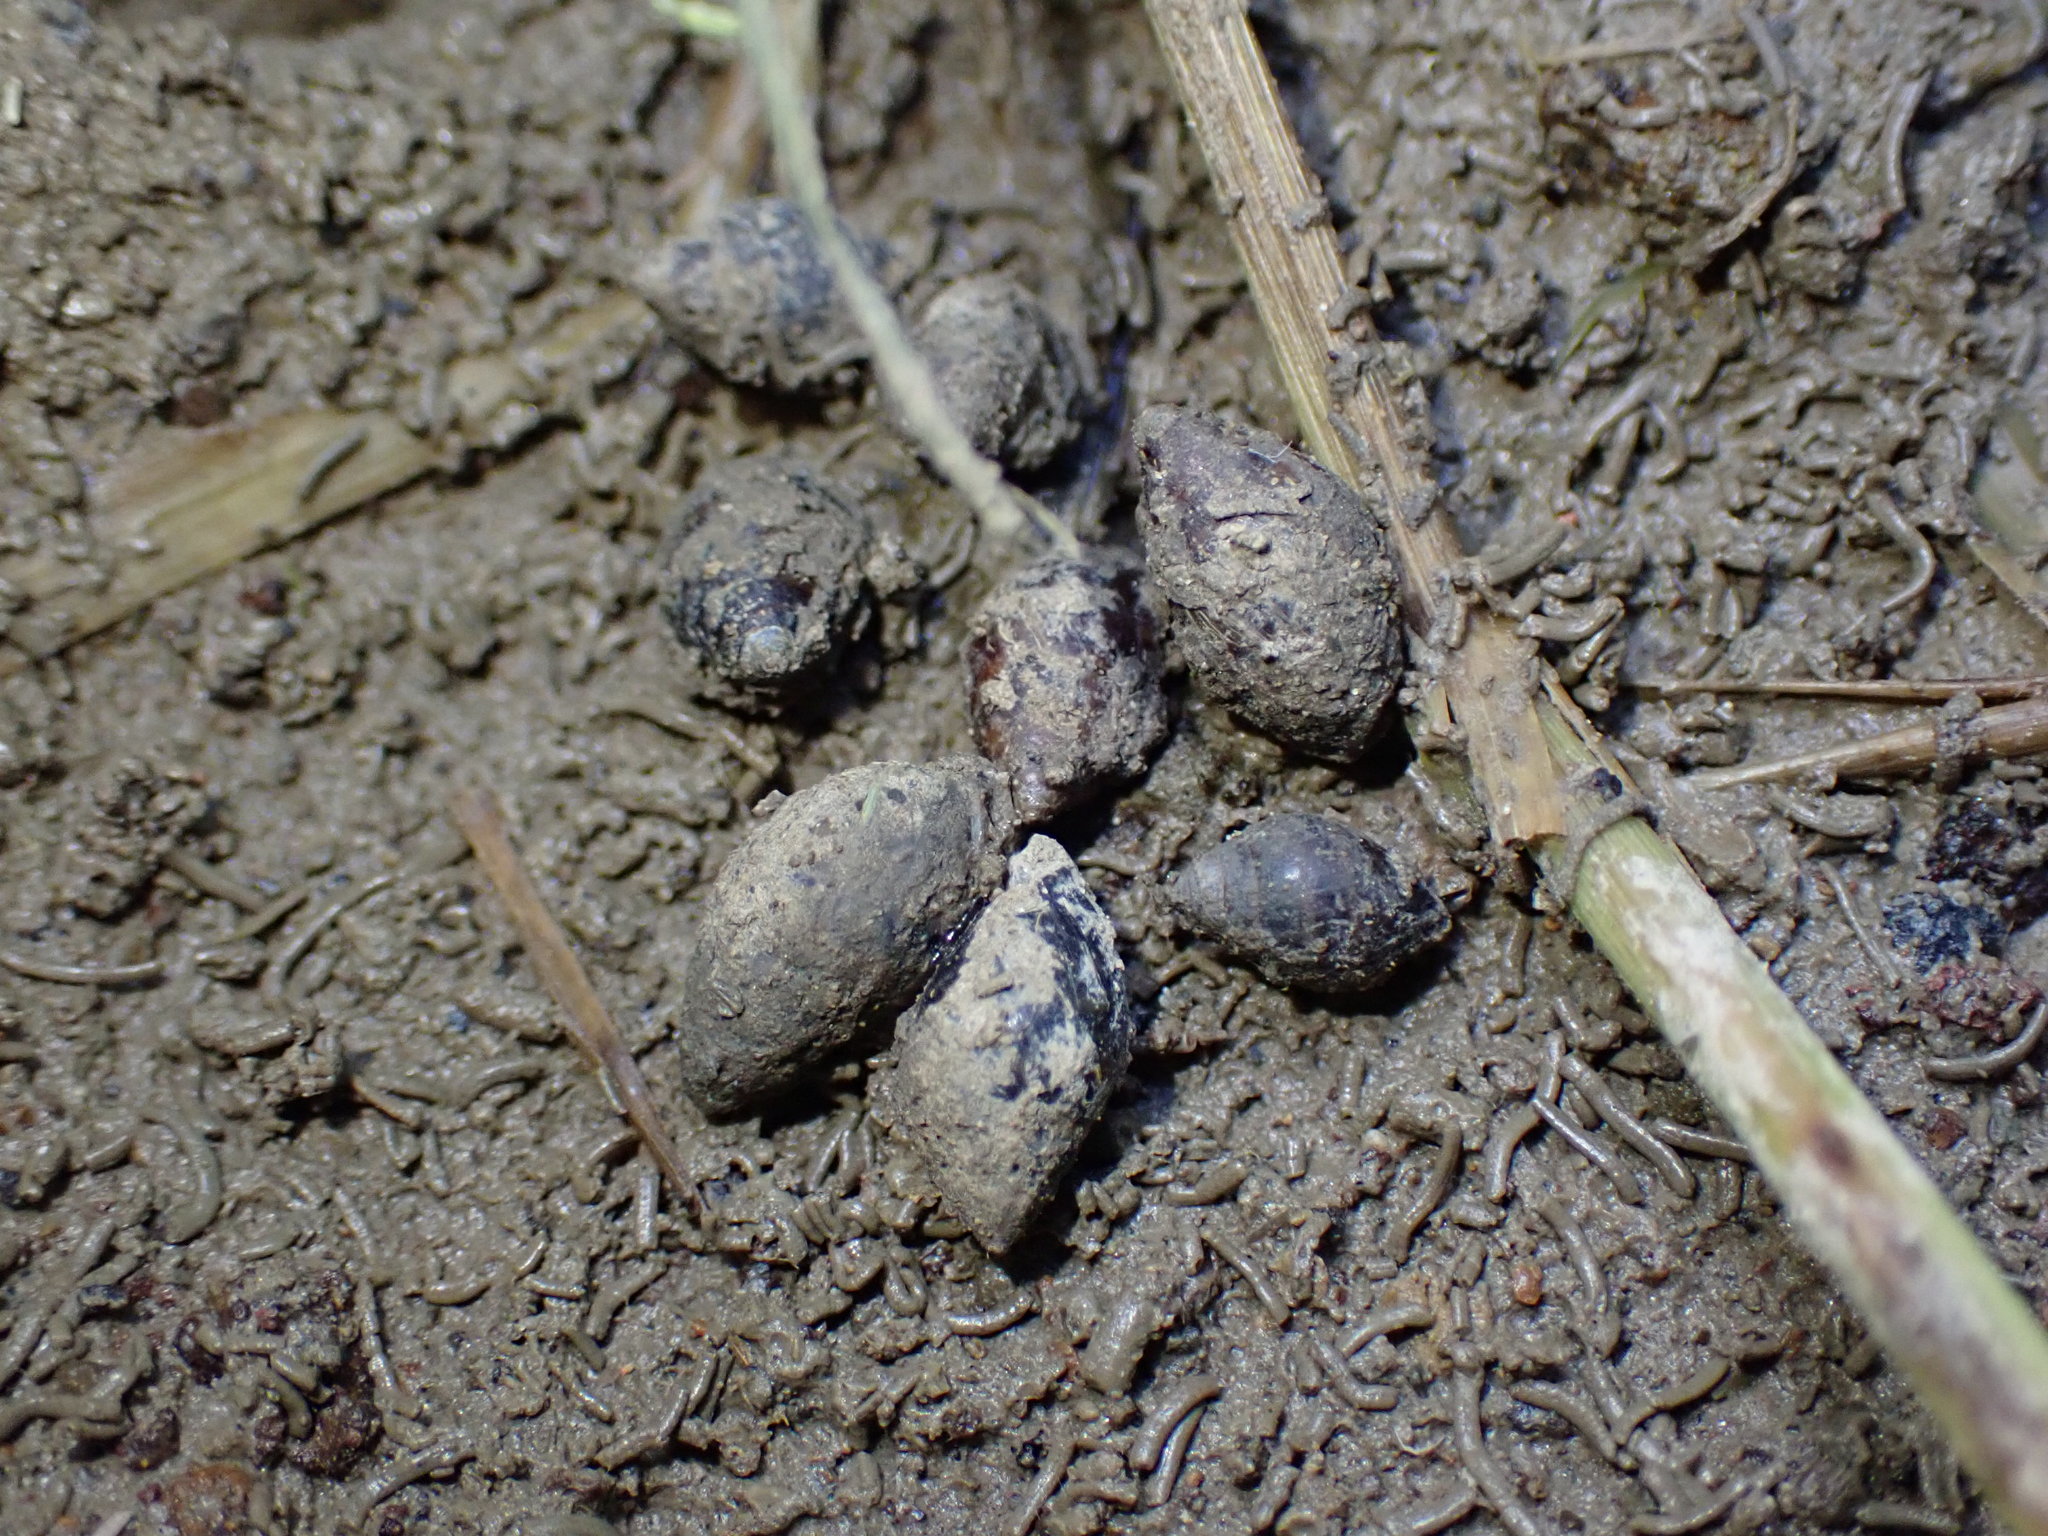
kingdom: Animalia
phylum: Mollusca
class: Gastropoda
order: Ellobiida
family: Ellobiidae
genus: Pleuroloba
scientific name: Pleuroloba costellaris
